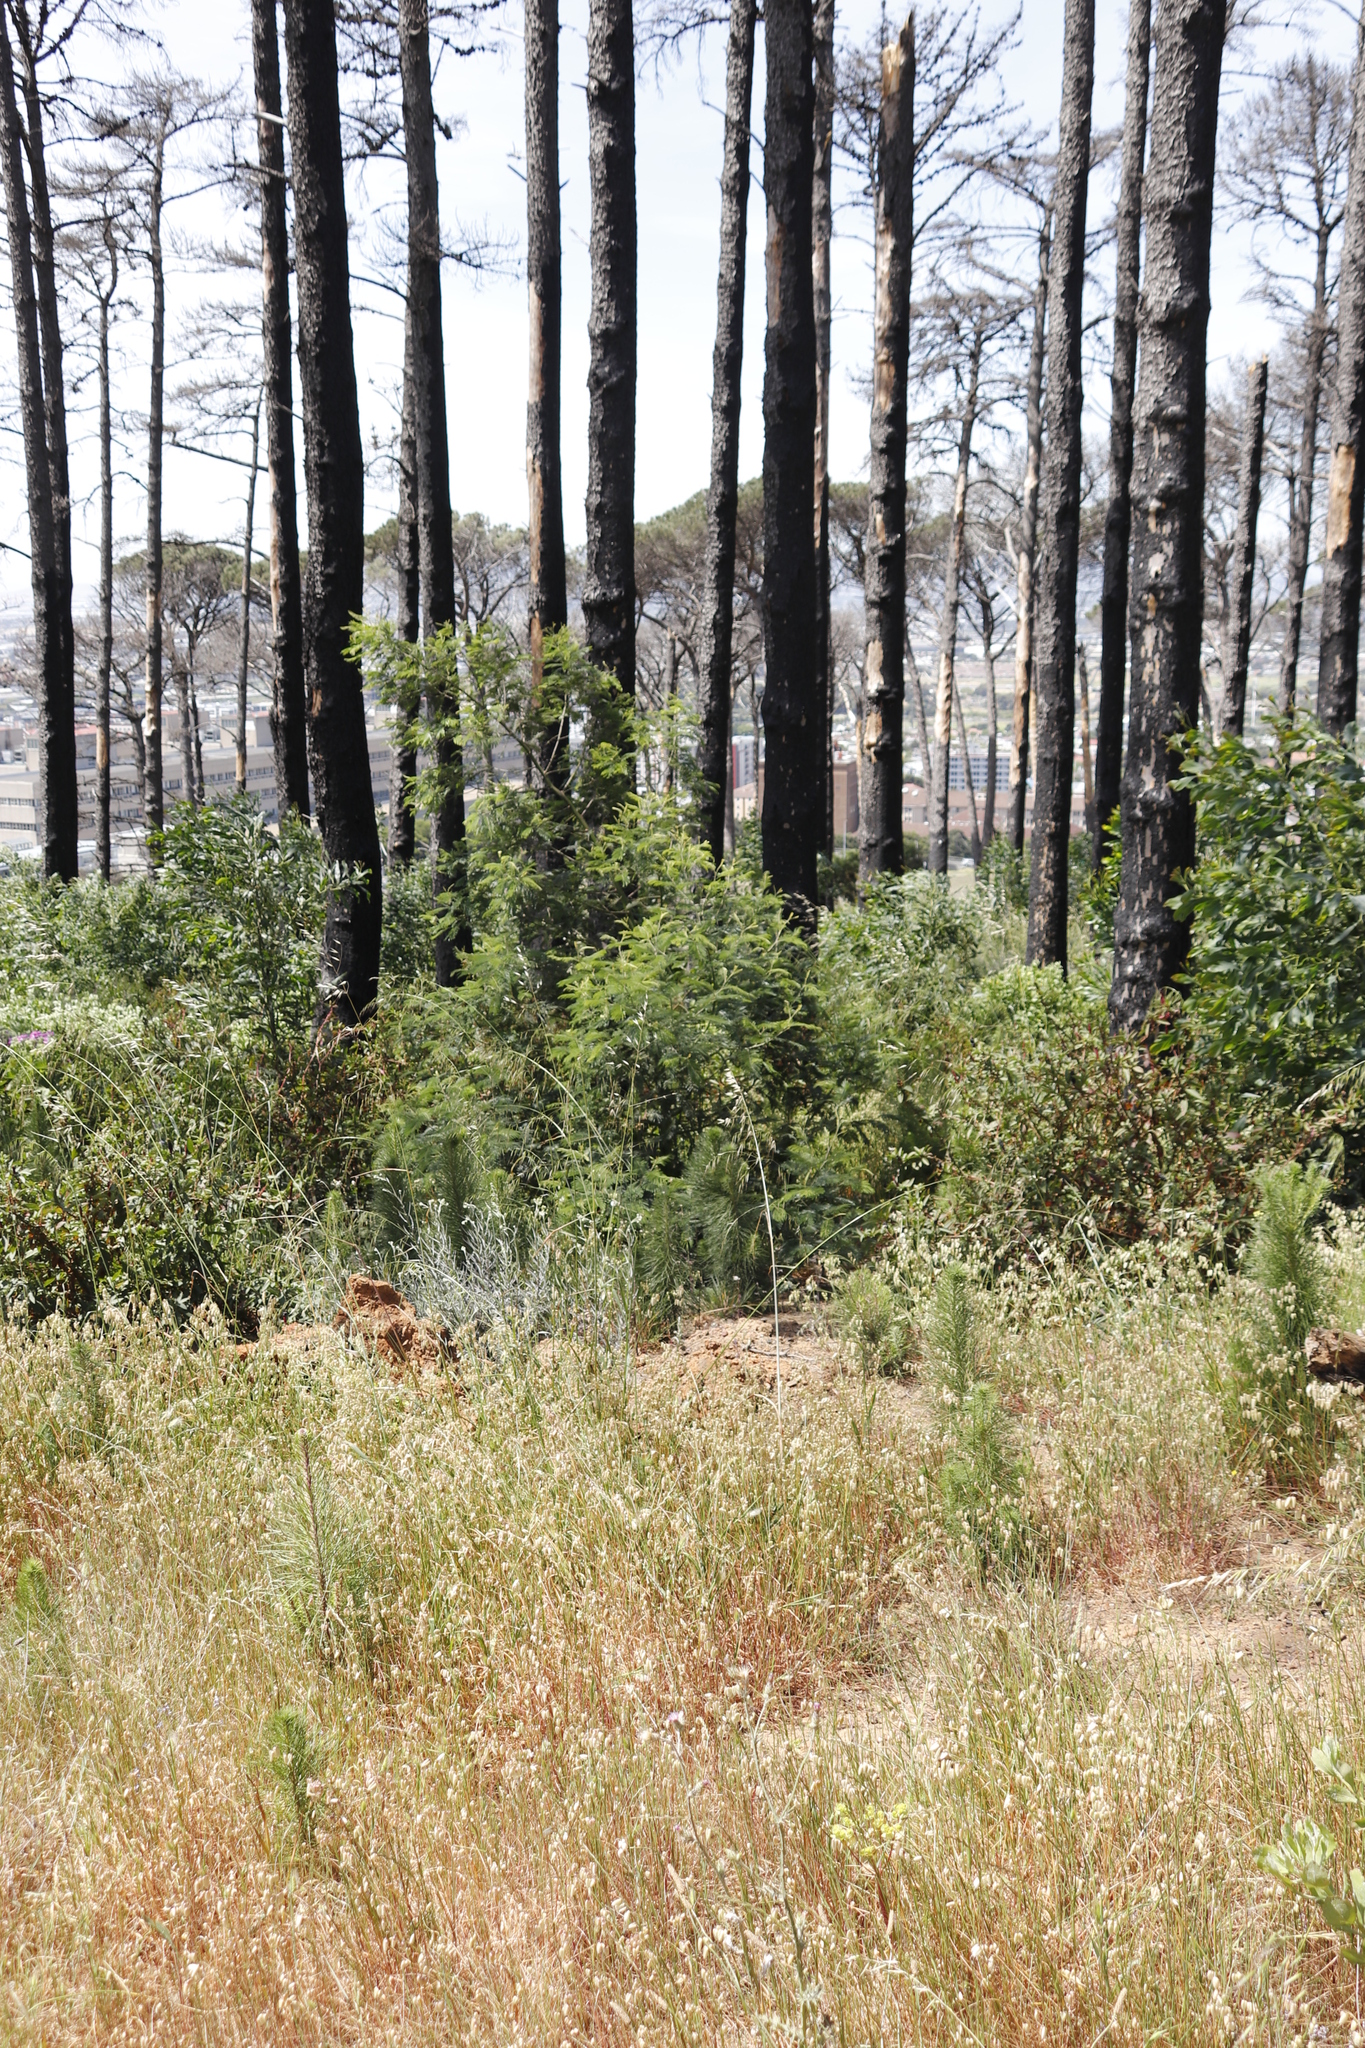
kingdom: Plantae
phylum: Tracheophyta
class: Magnoliopsida
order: Fabales
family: Fabaceae
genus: Acacia
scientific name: Acacia saligna
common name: Orange wattle
